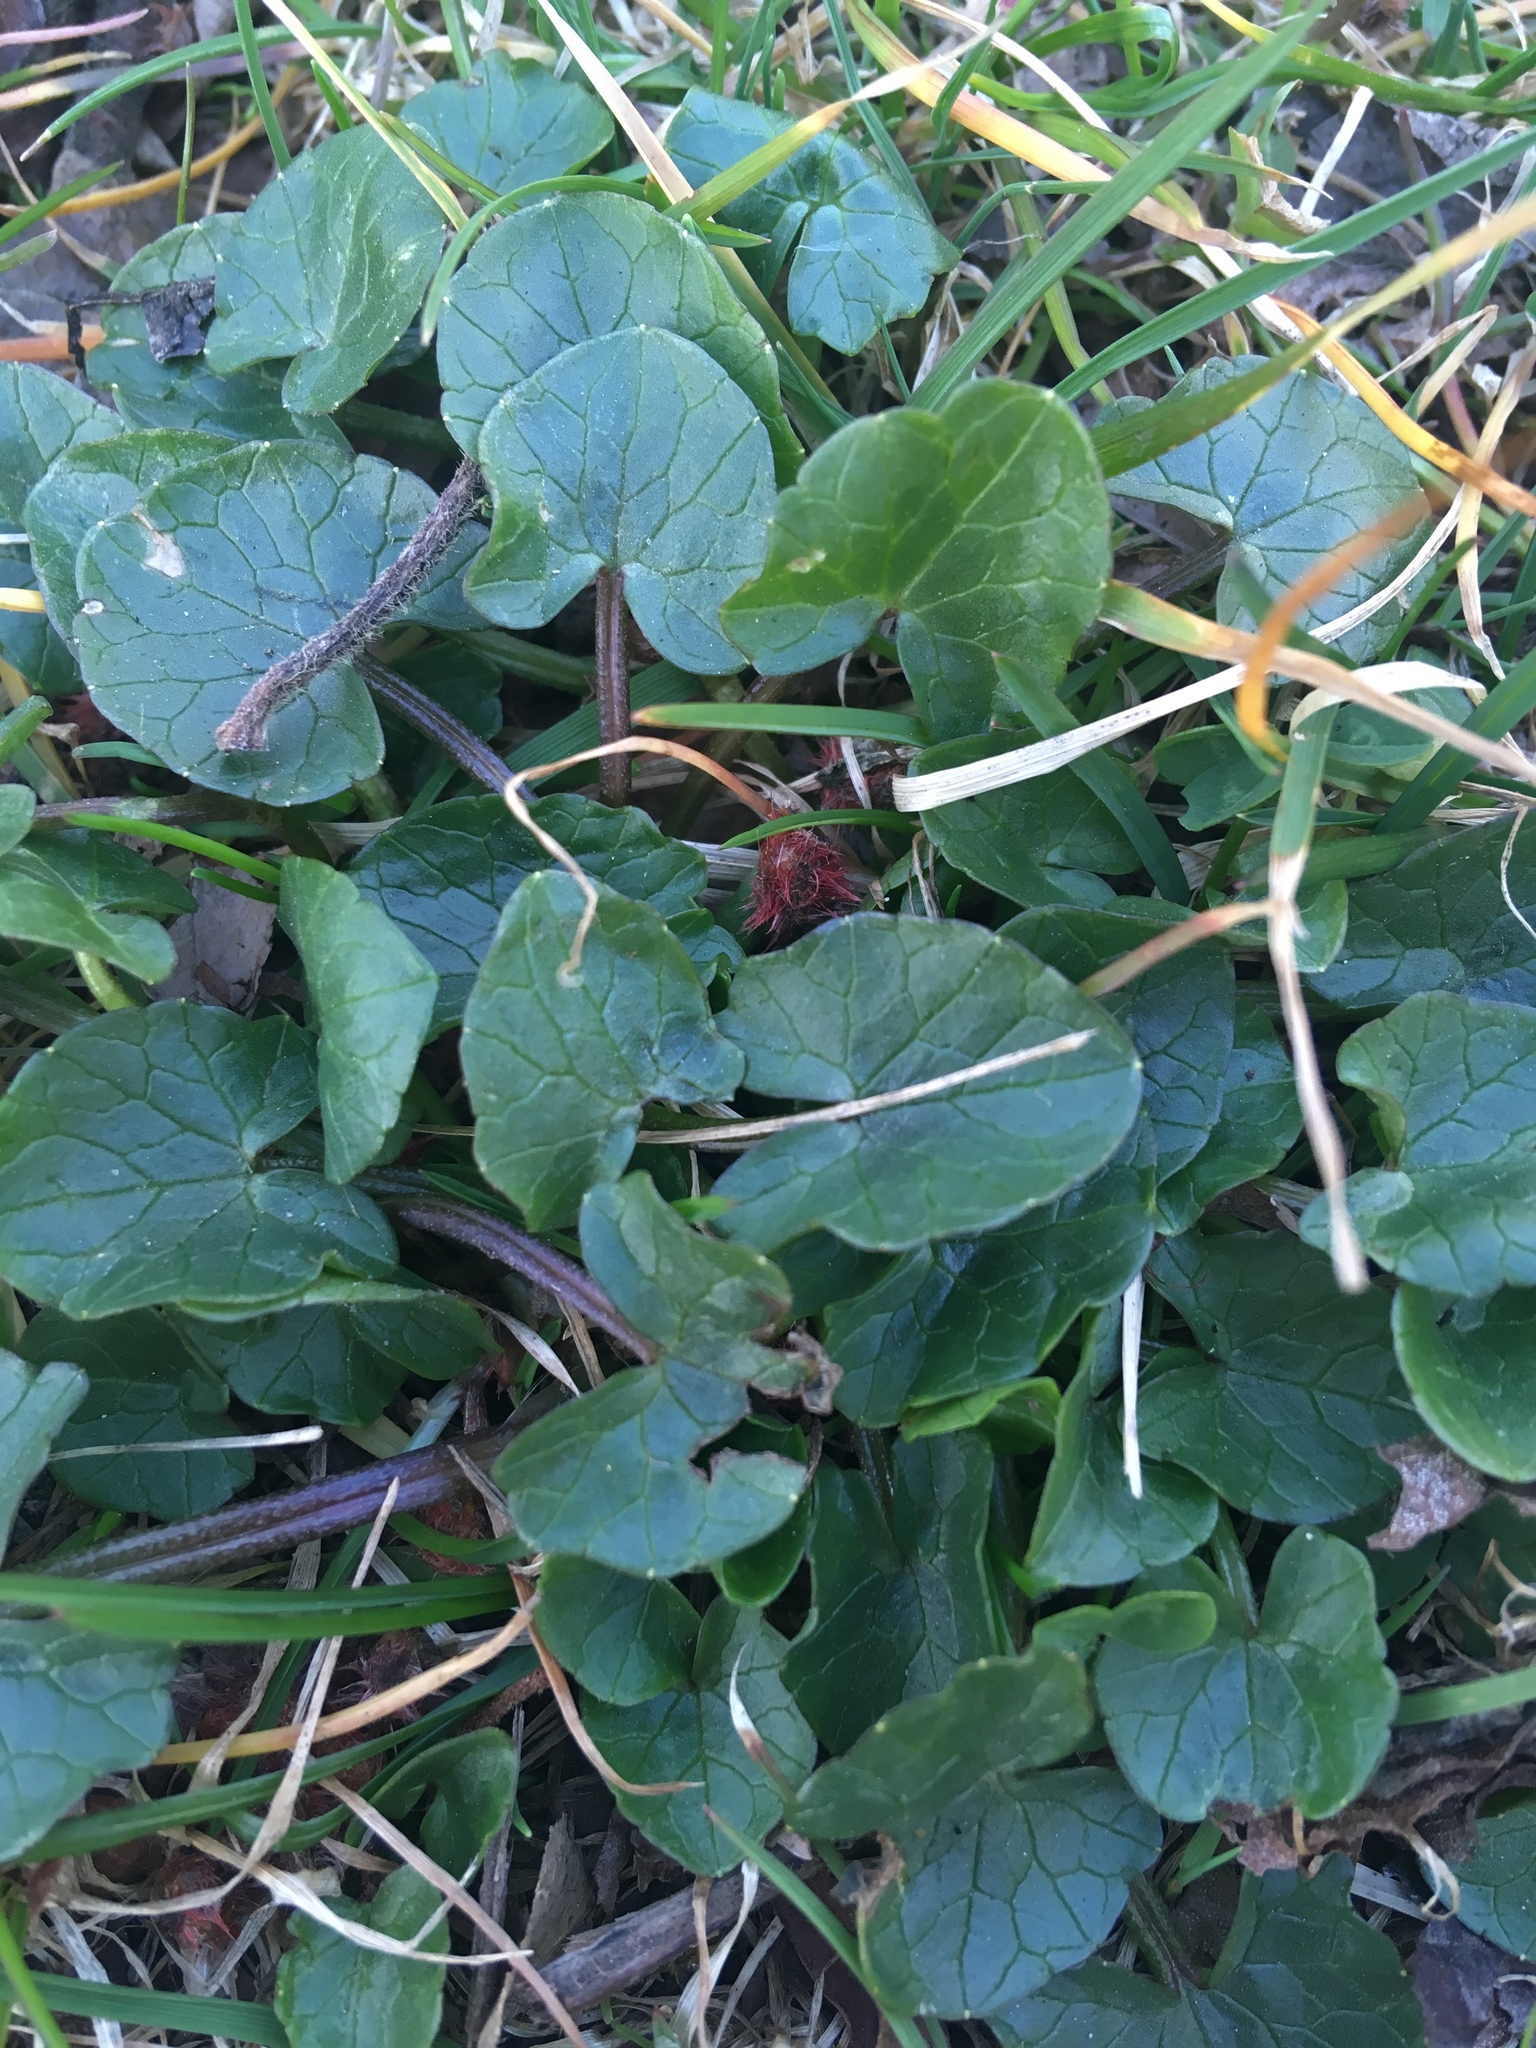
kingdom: Plantae
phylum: Tracheophyta
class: Magnoliopsida
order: Ranunculales
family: Ranunculaceae
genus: Ficaria
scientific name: Ficaria verna
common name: Lesser celandine
